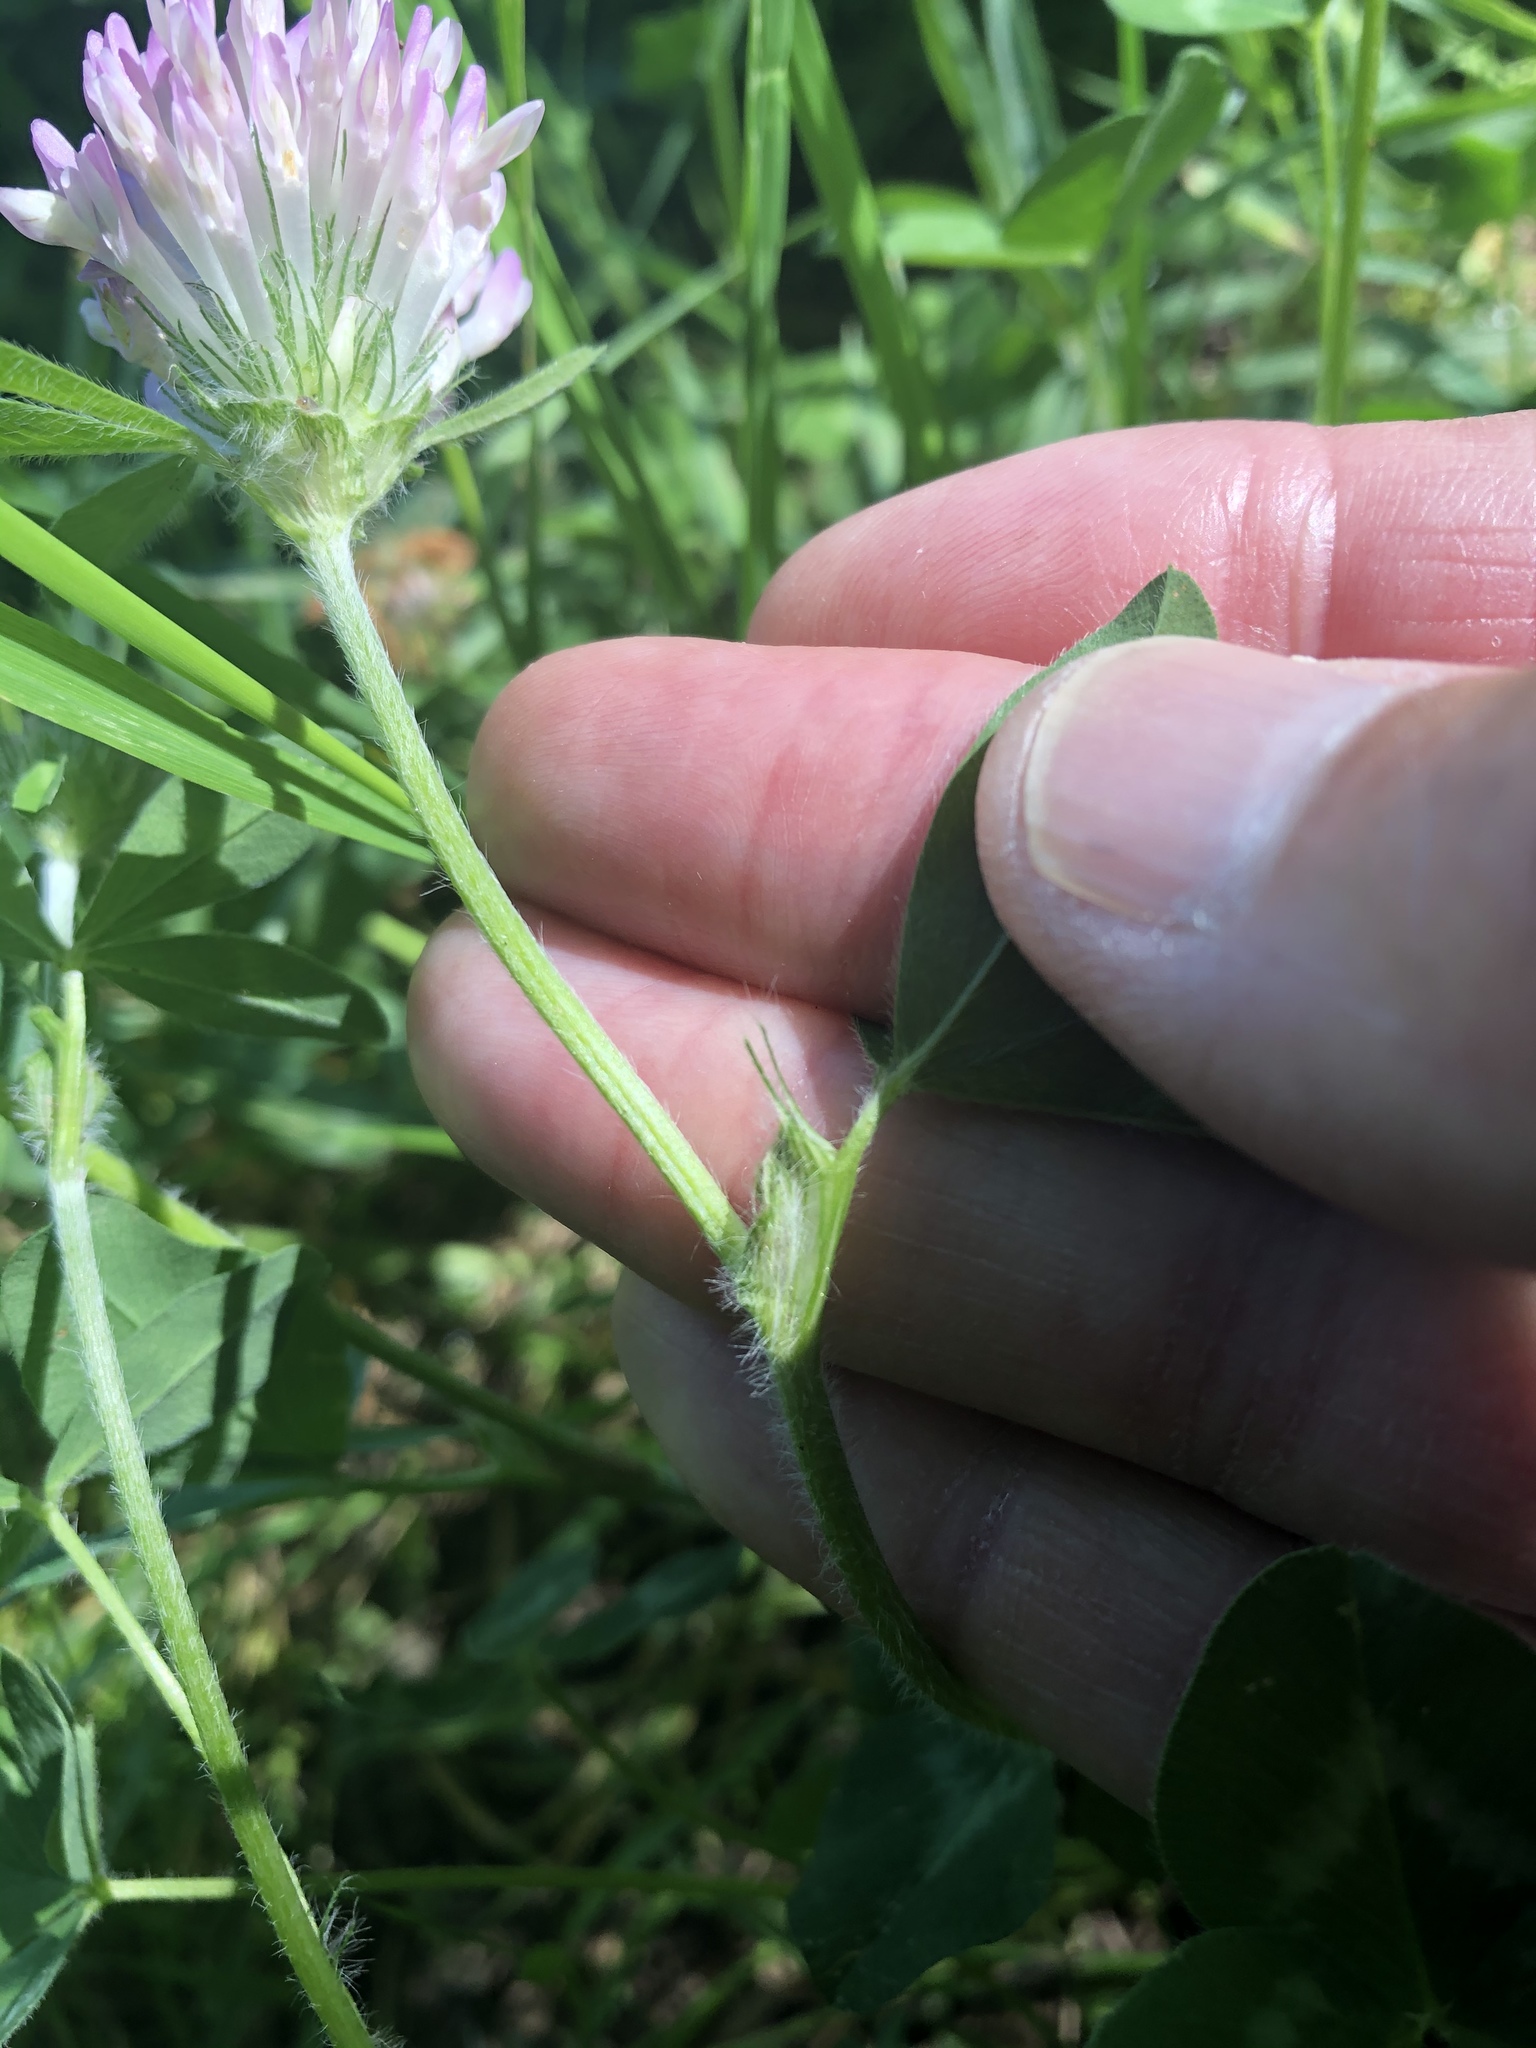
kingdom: Plantae
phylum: Tracheophyta
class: Magnoliopsida
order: Fabales
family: Fabaceae
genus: Trifolium
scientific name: Trifolium pratense
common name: Red clover
